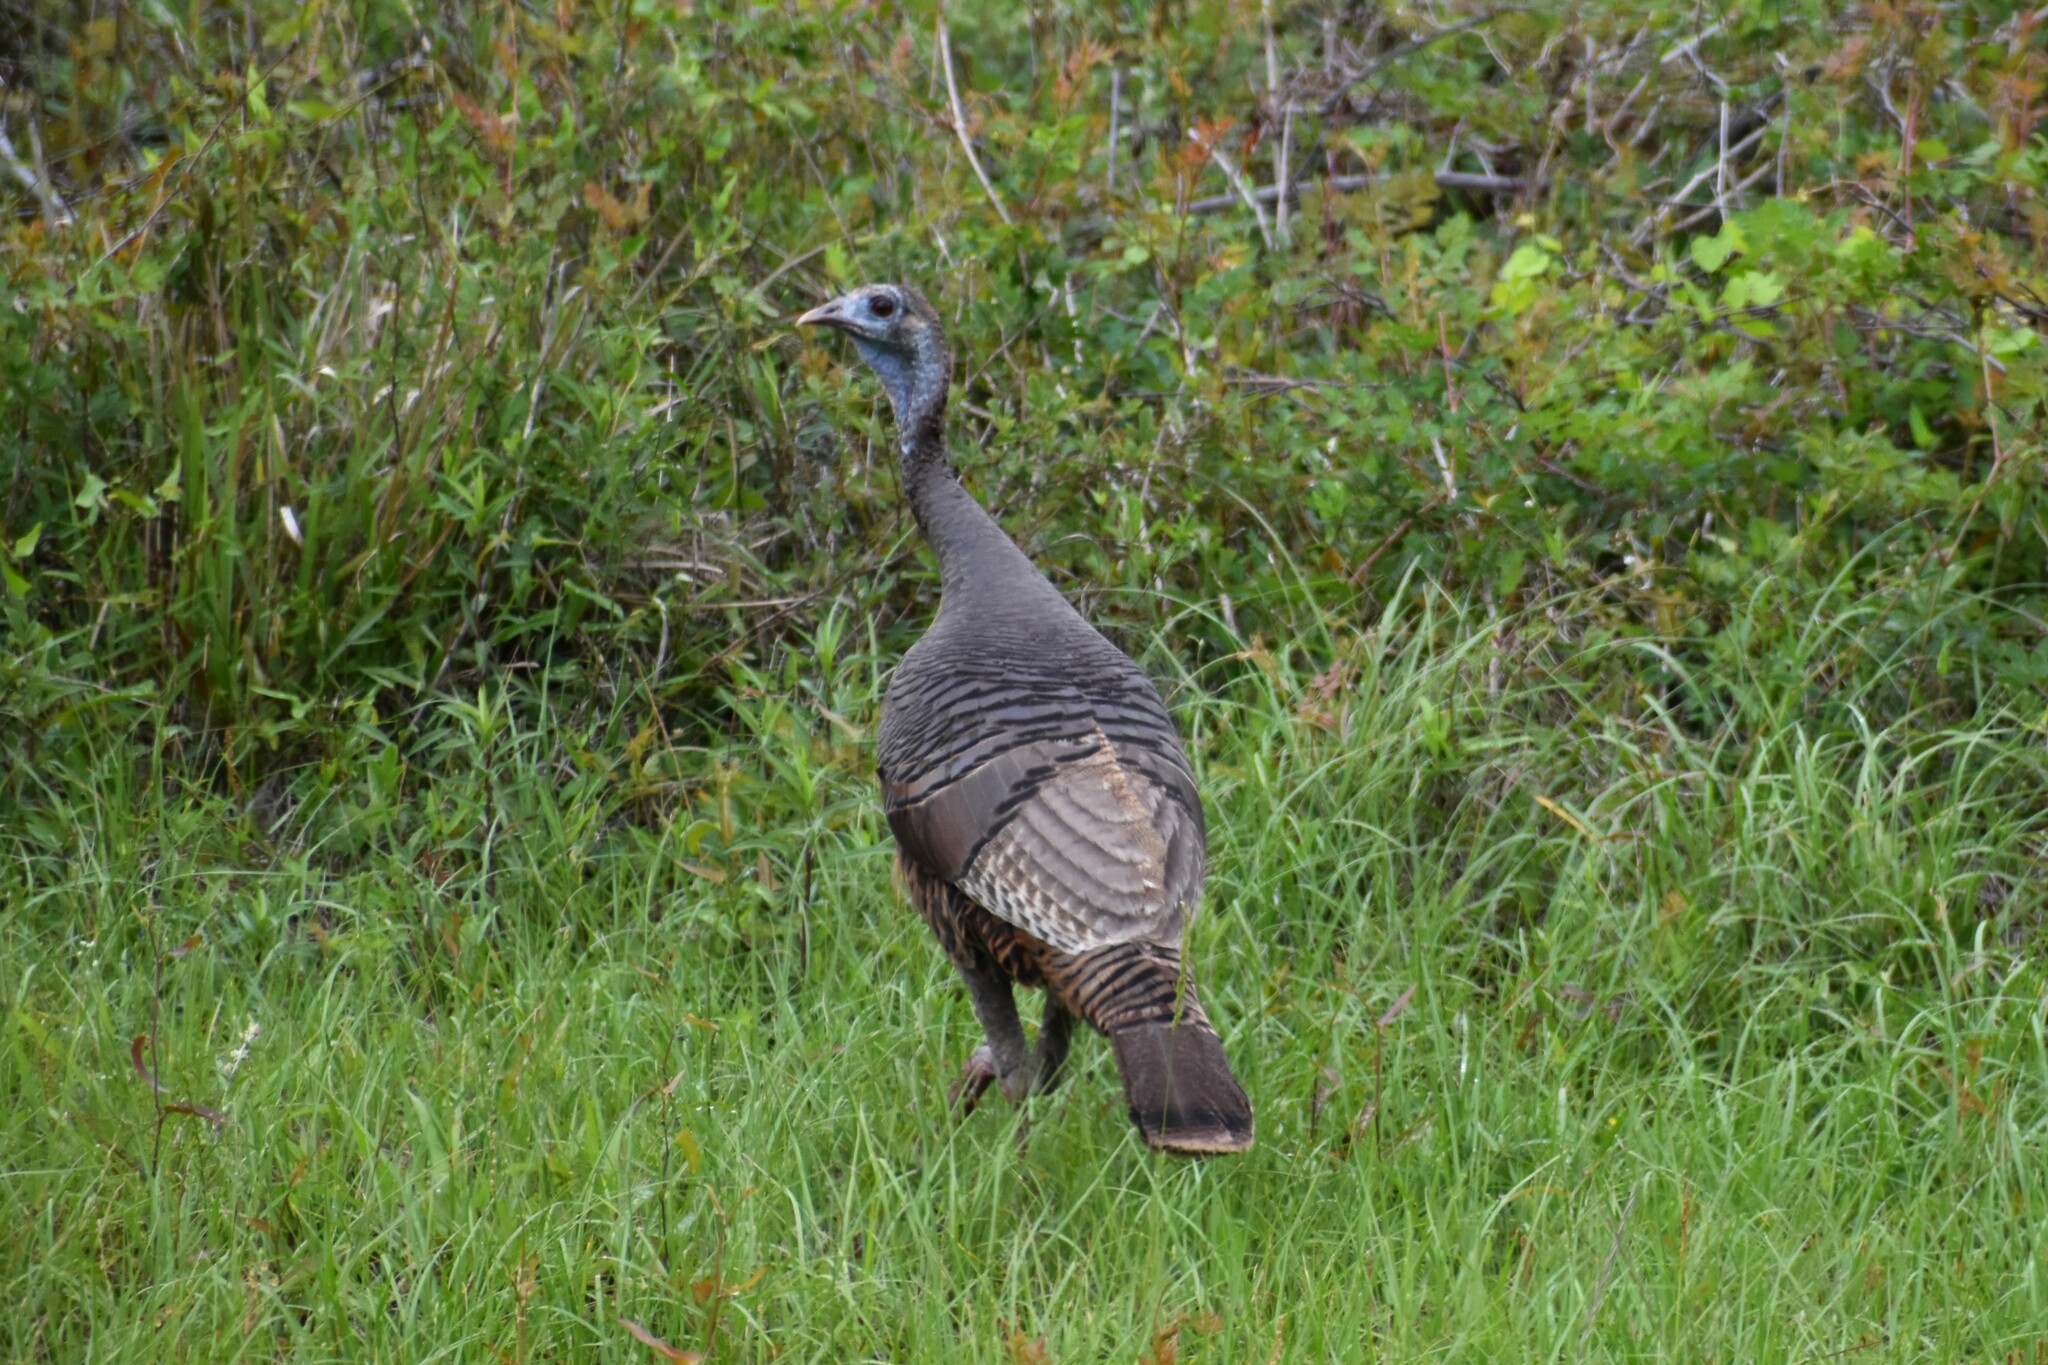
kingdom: Animalia
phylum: Chordata
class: Aves
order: Galliformes
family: Phasianidae
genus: Meleagris
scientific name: Meleagris gallopavo
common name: Wild turkey
